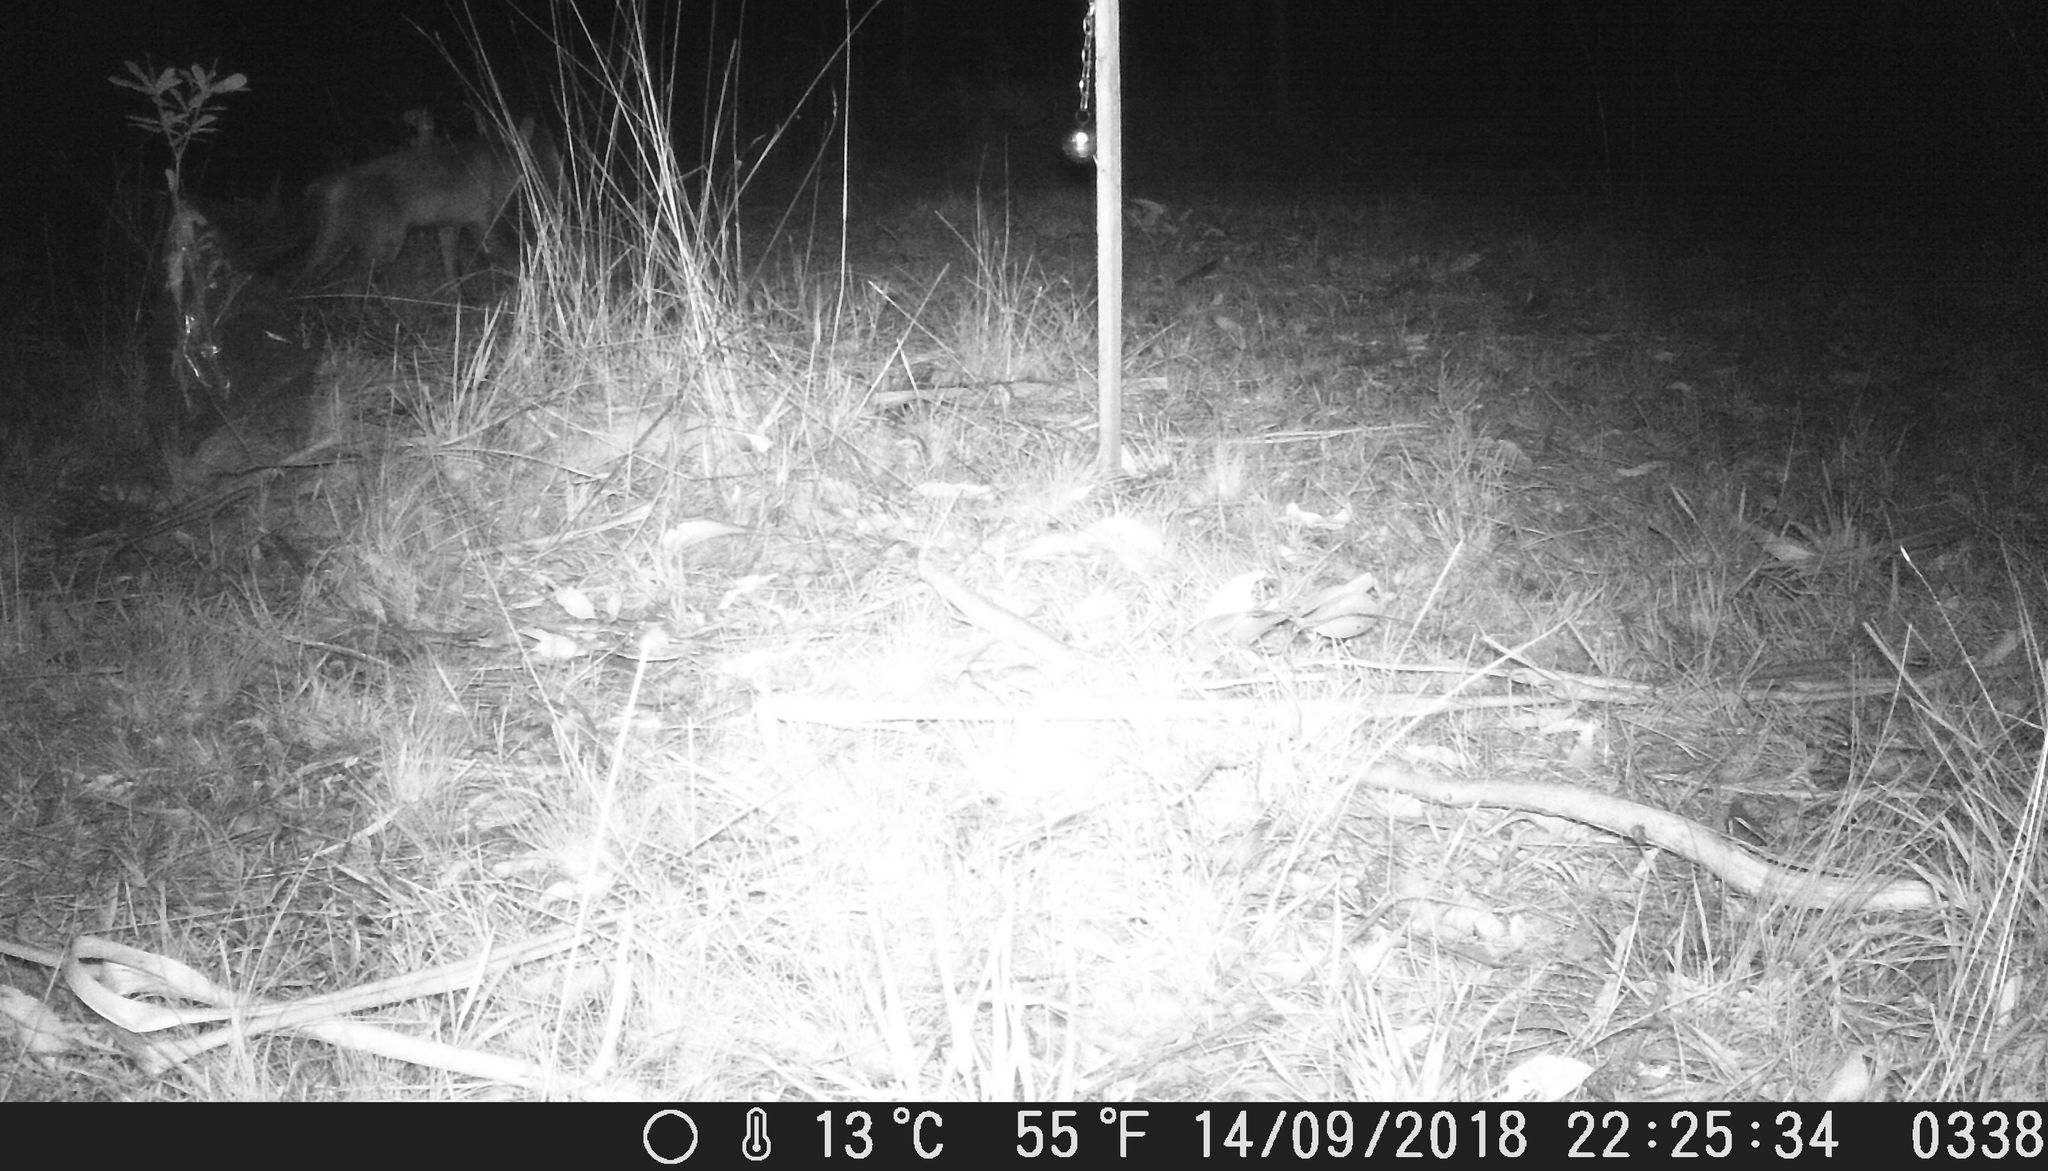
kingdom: Animalia
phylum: Chordata
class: Mammalia
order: Carnivora
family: Canidae
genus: Vulpes
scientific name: Vulpes vulpes
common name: Red fox
